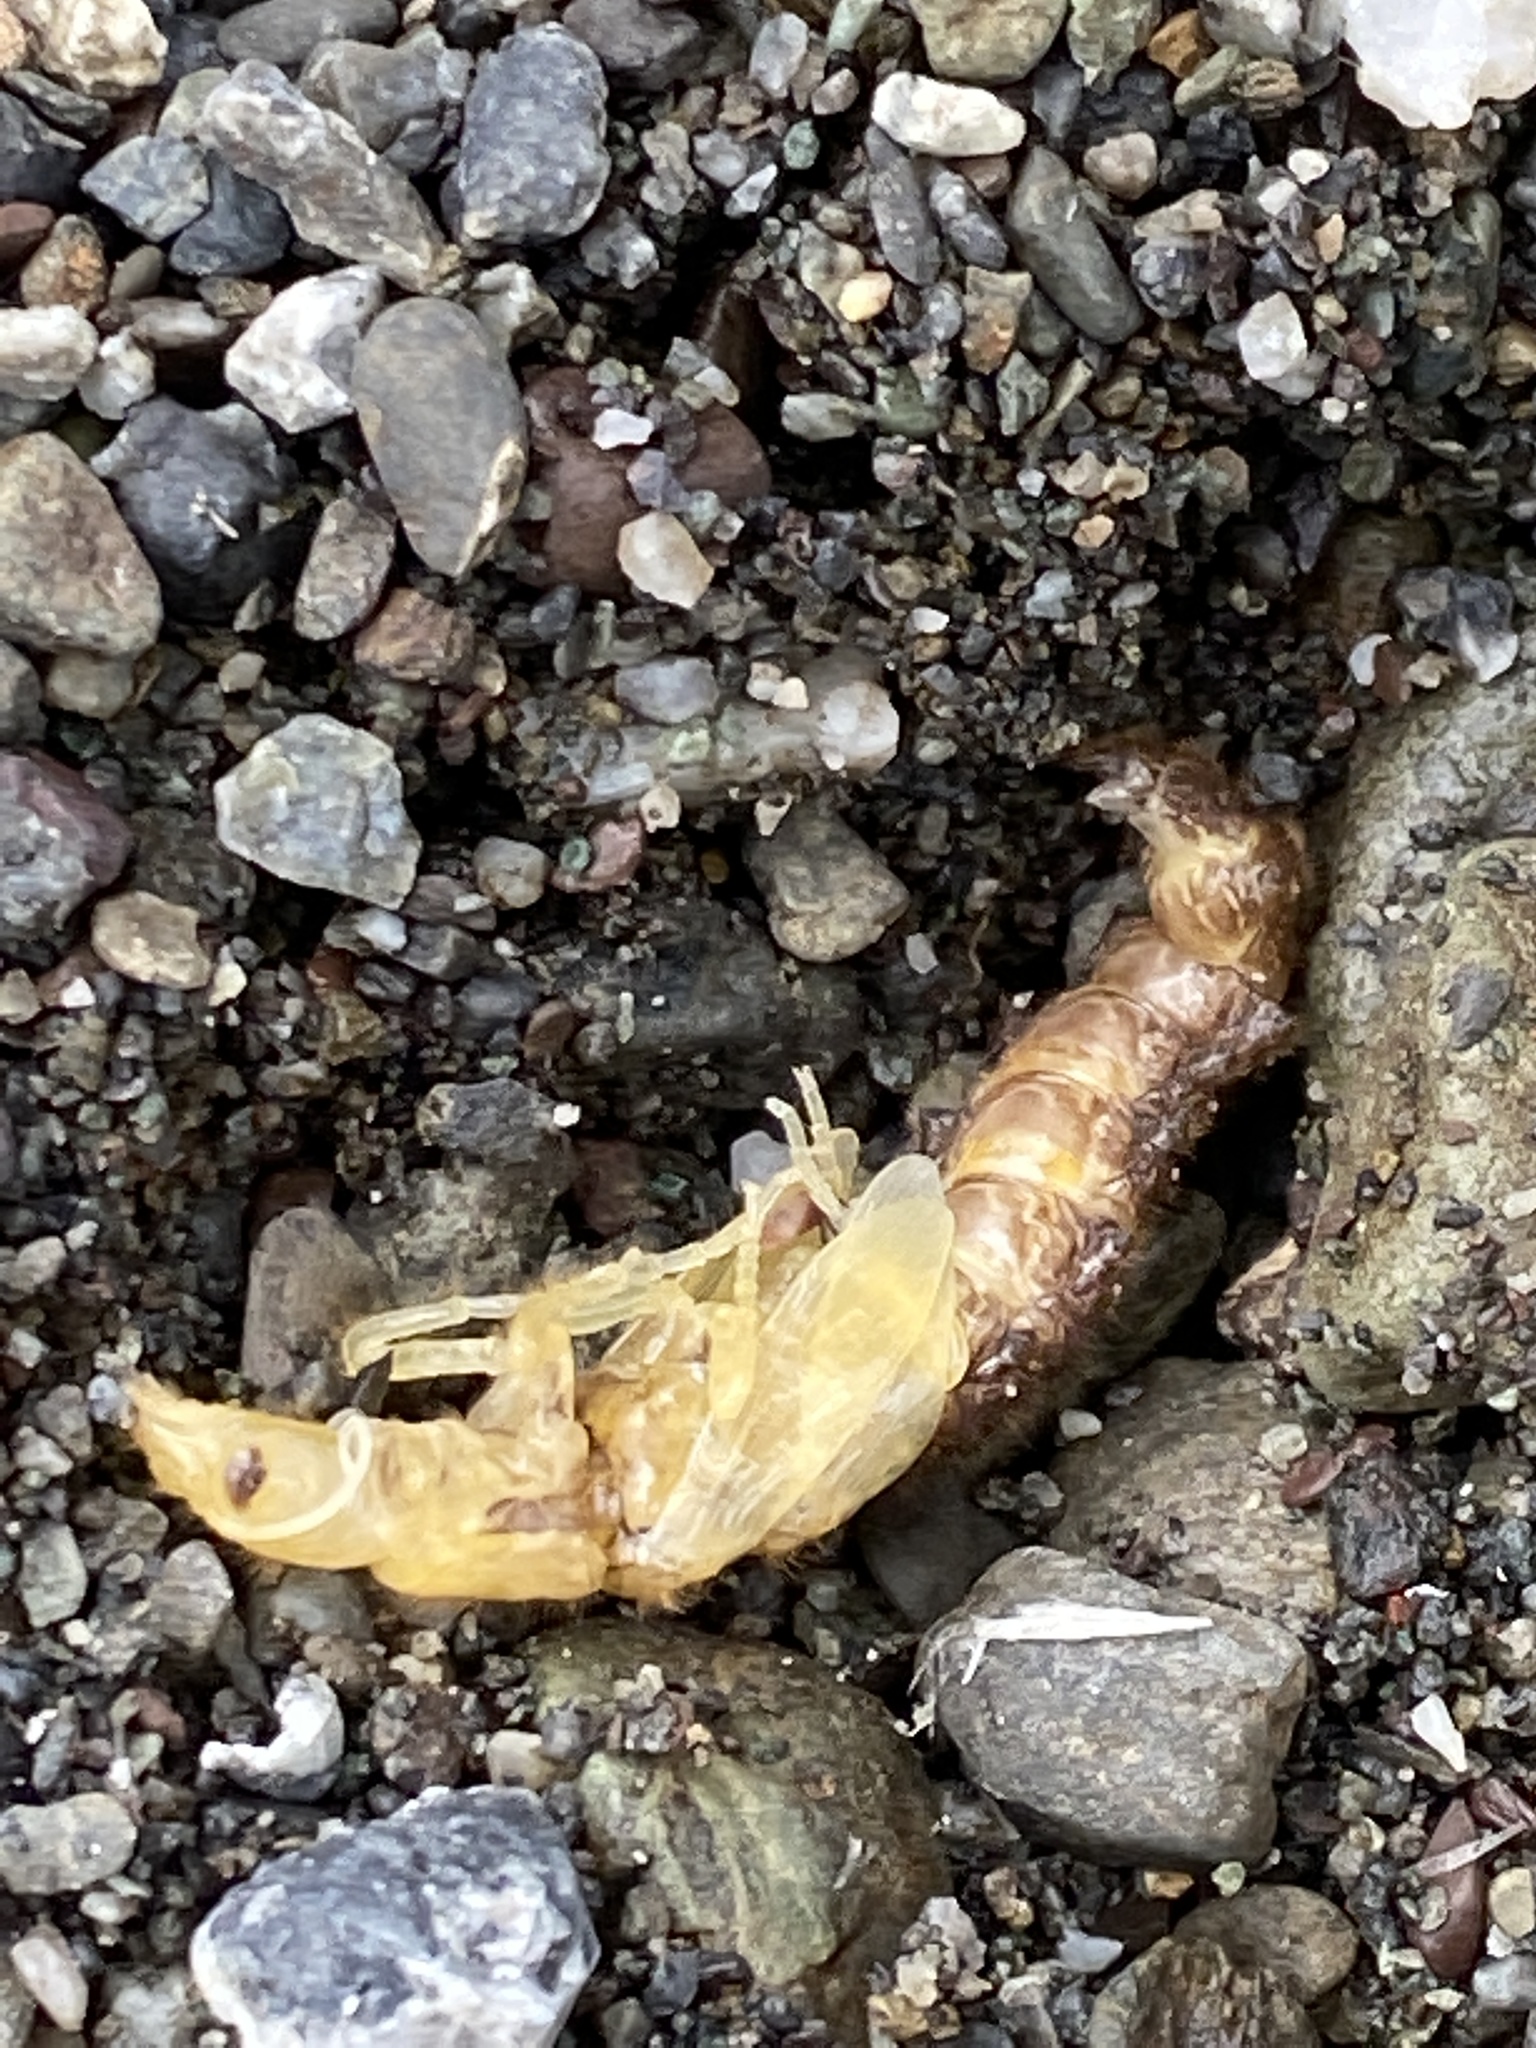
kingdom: Animalia
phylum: Arthropoda
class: Insecta
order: Megaloptera
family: Corydalidae
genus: Archichauliodes
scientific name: Archichauliodes diversus
